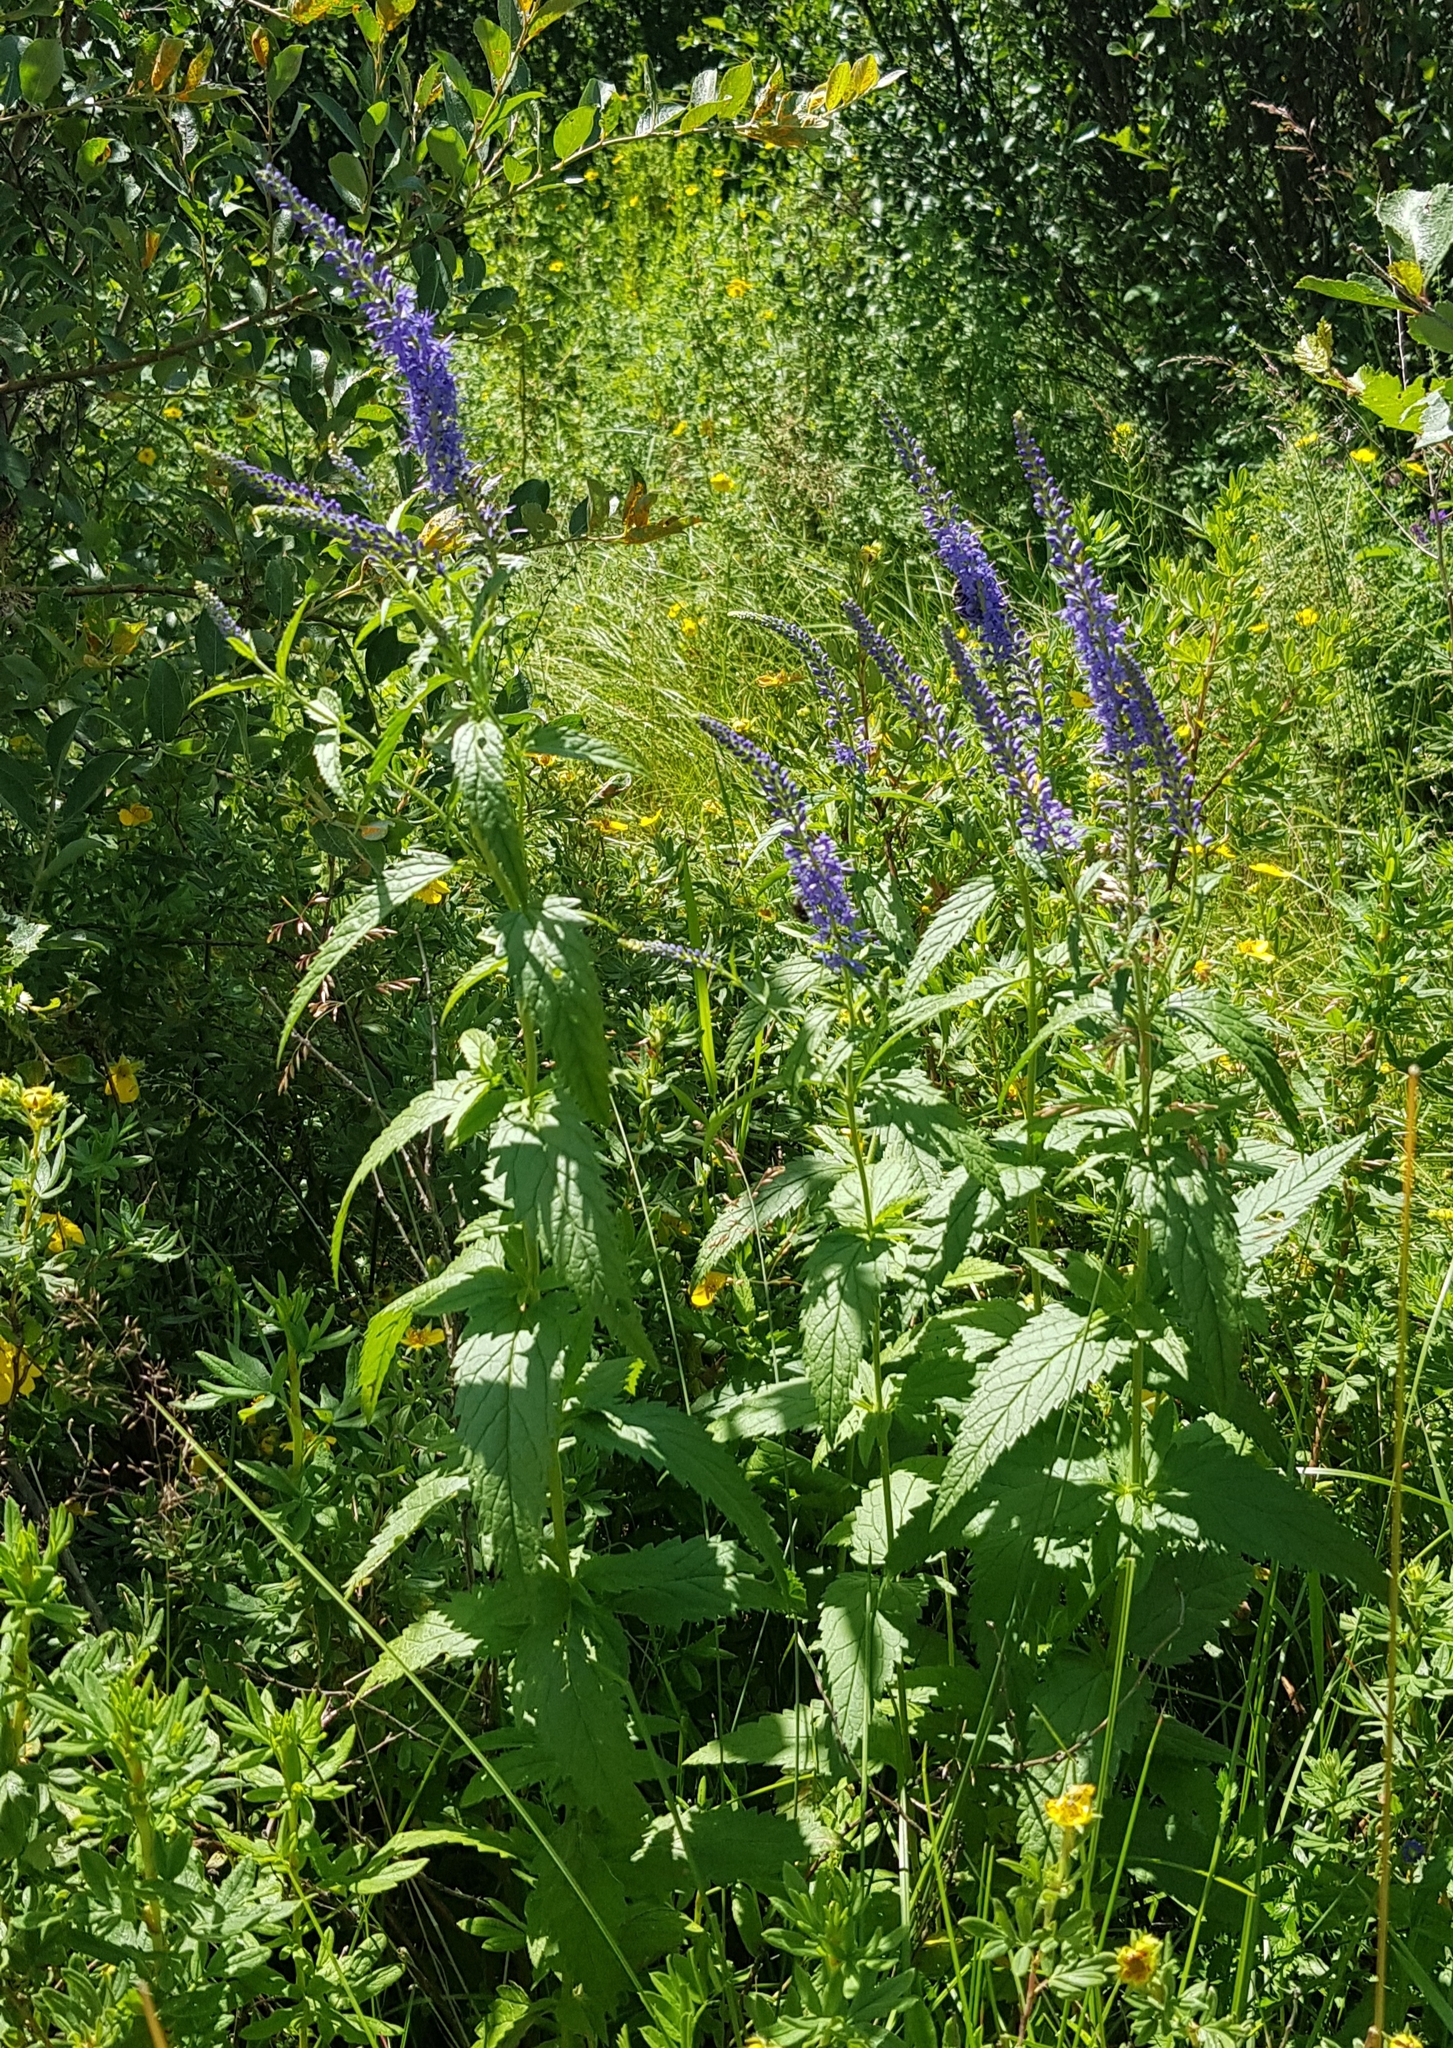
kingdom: Plantae
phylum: Tracheophyta
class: Magnoliopsida
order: Lamiales
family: Plantaginaceae
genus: Veronica
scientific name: Veronica longifolia
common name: Garden speedwell
